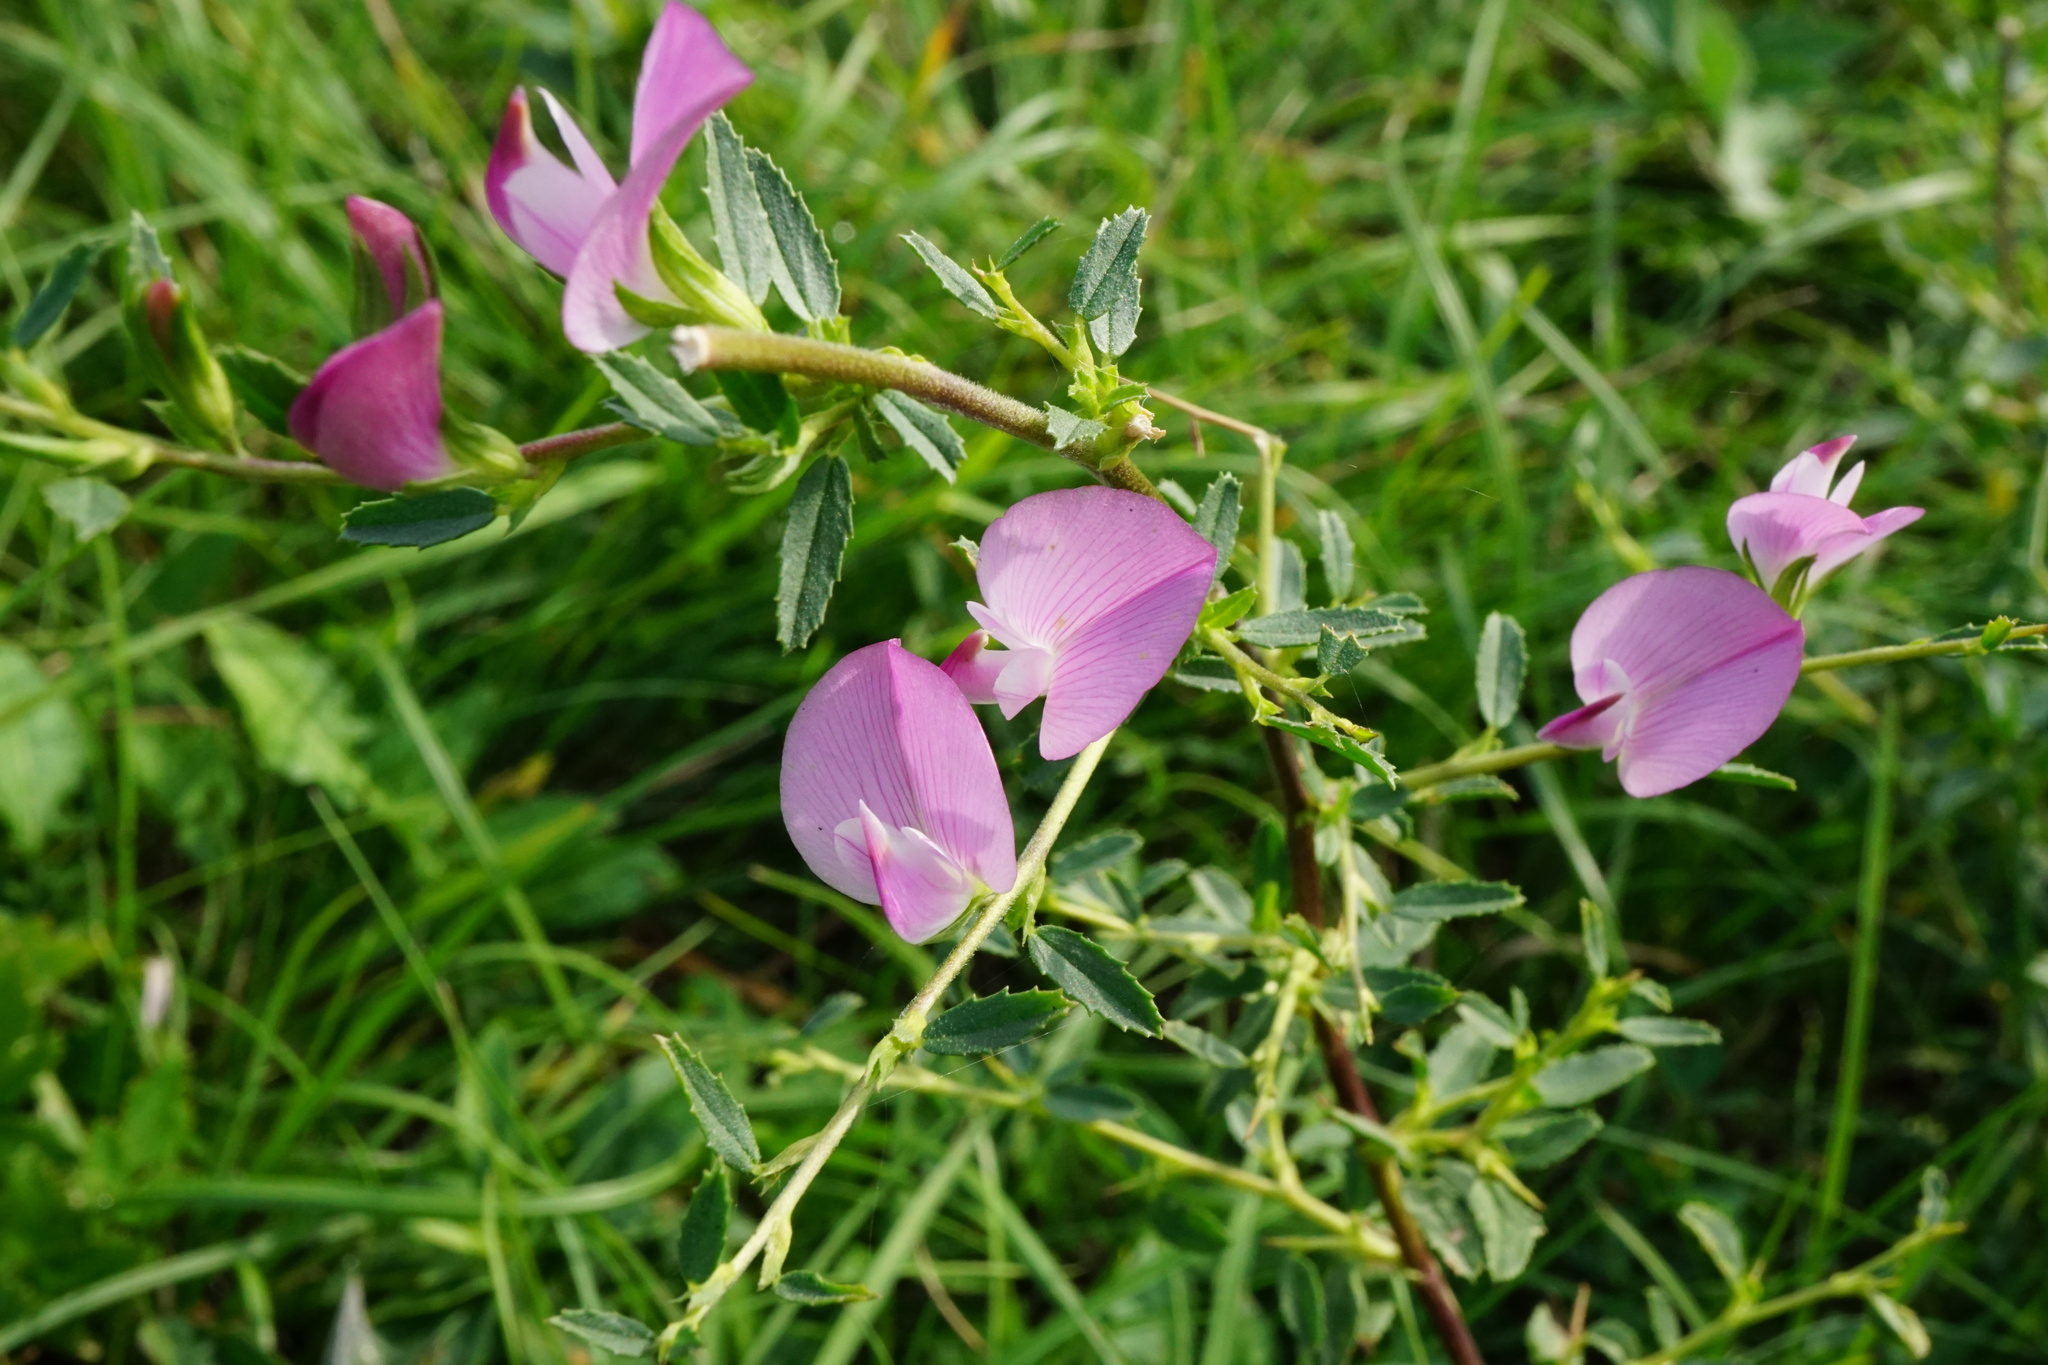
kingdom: Plantae
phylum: Tracheophyta
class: Magnoliopsida
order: Fabales
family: Fabaceae
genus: Ononis
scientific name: Ononis spinosa
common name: Spiny restharrow
